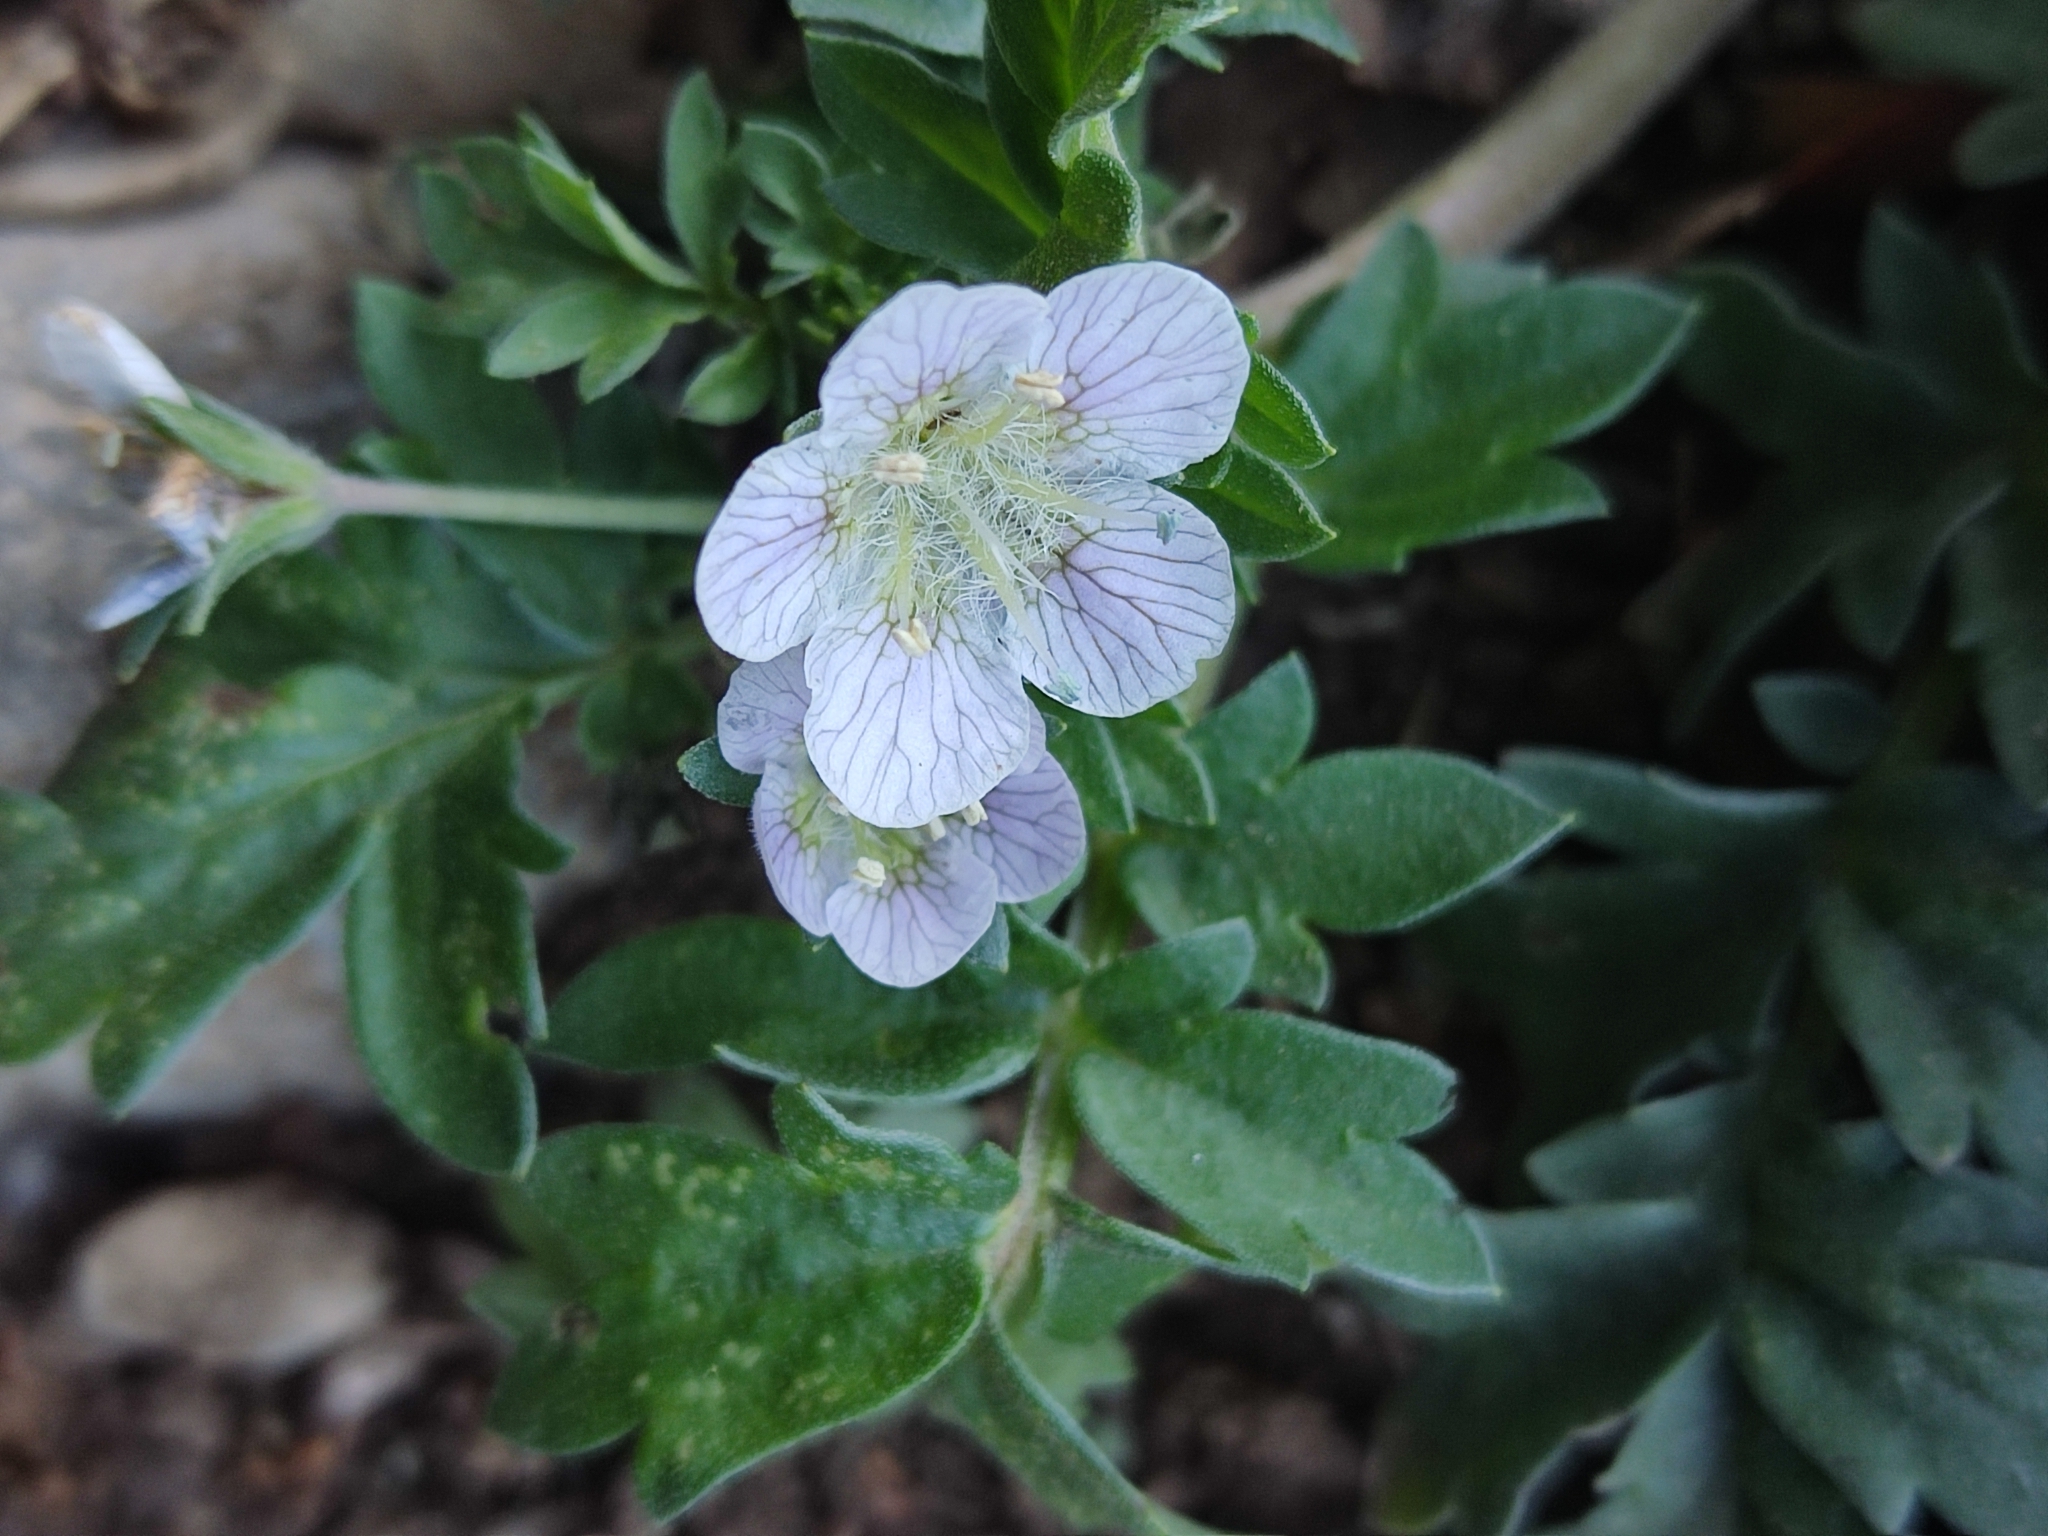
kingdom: Plantae
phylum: Tracheophyta
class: Magnoliopsida
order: Boraginales
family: Hydrophyllaceae
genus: Phacelia
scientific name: Phacelia platycarpa
